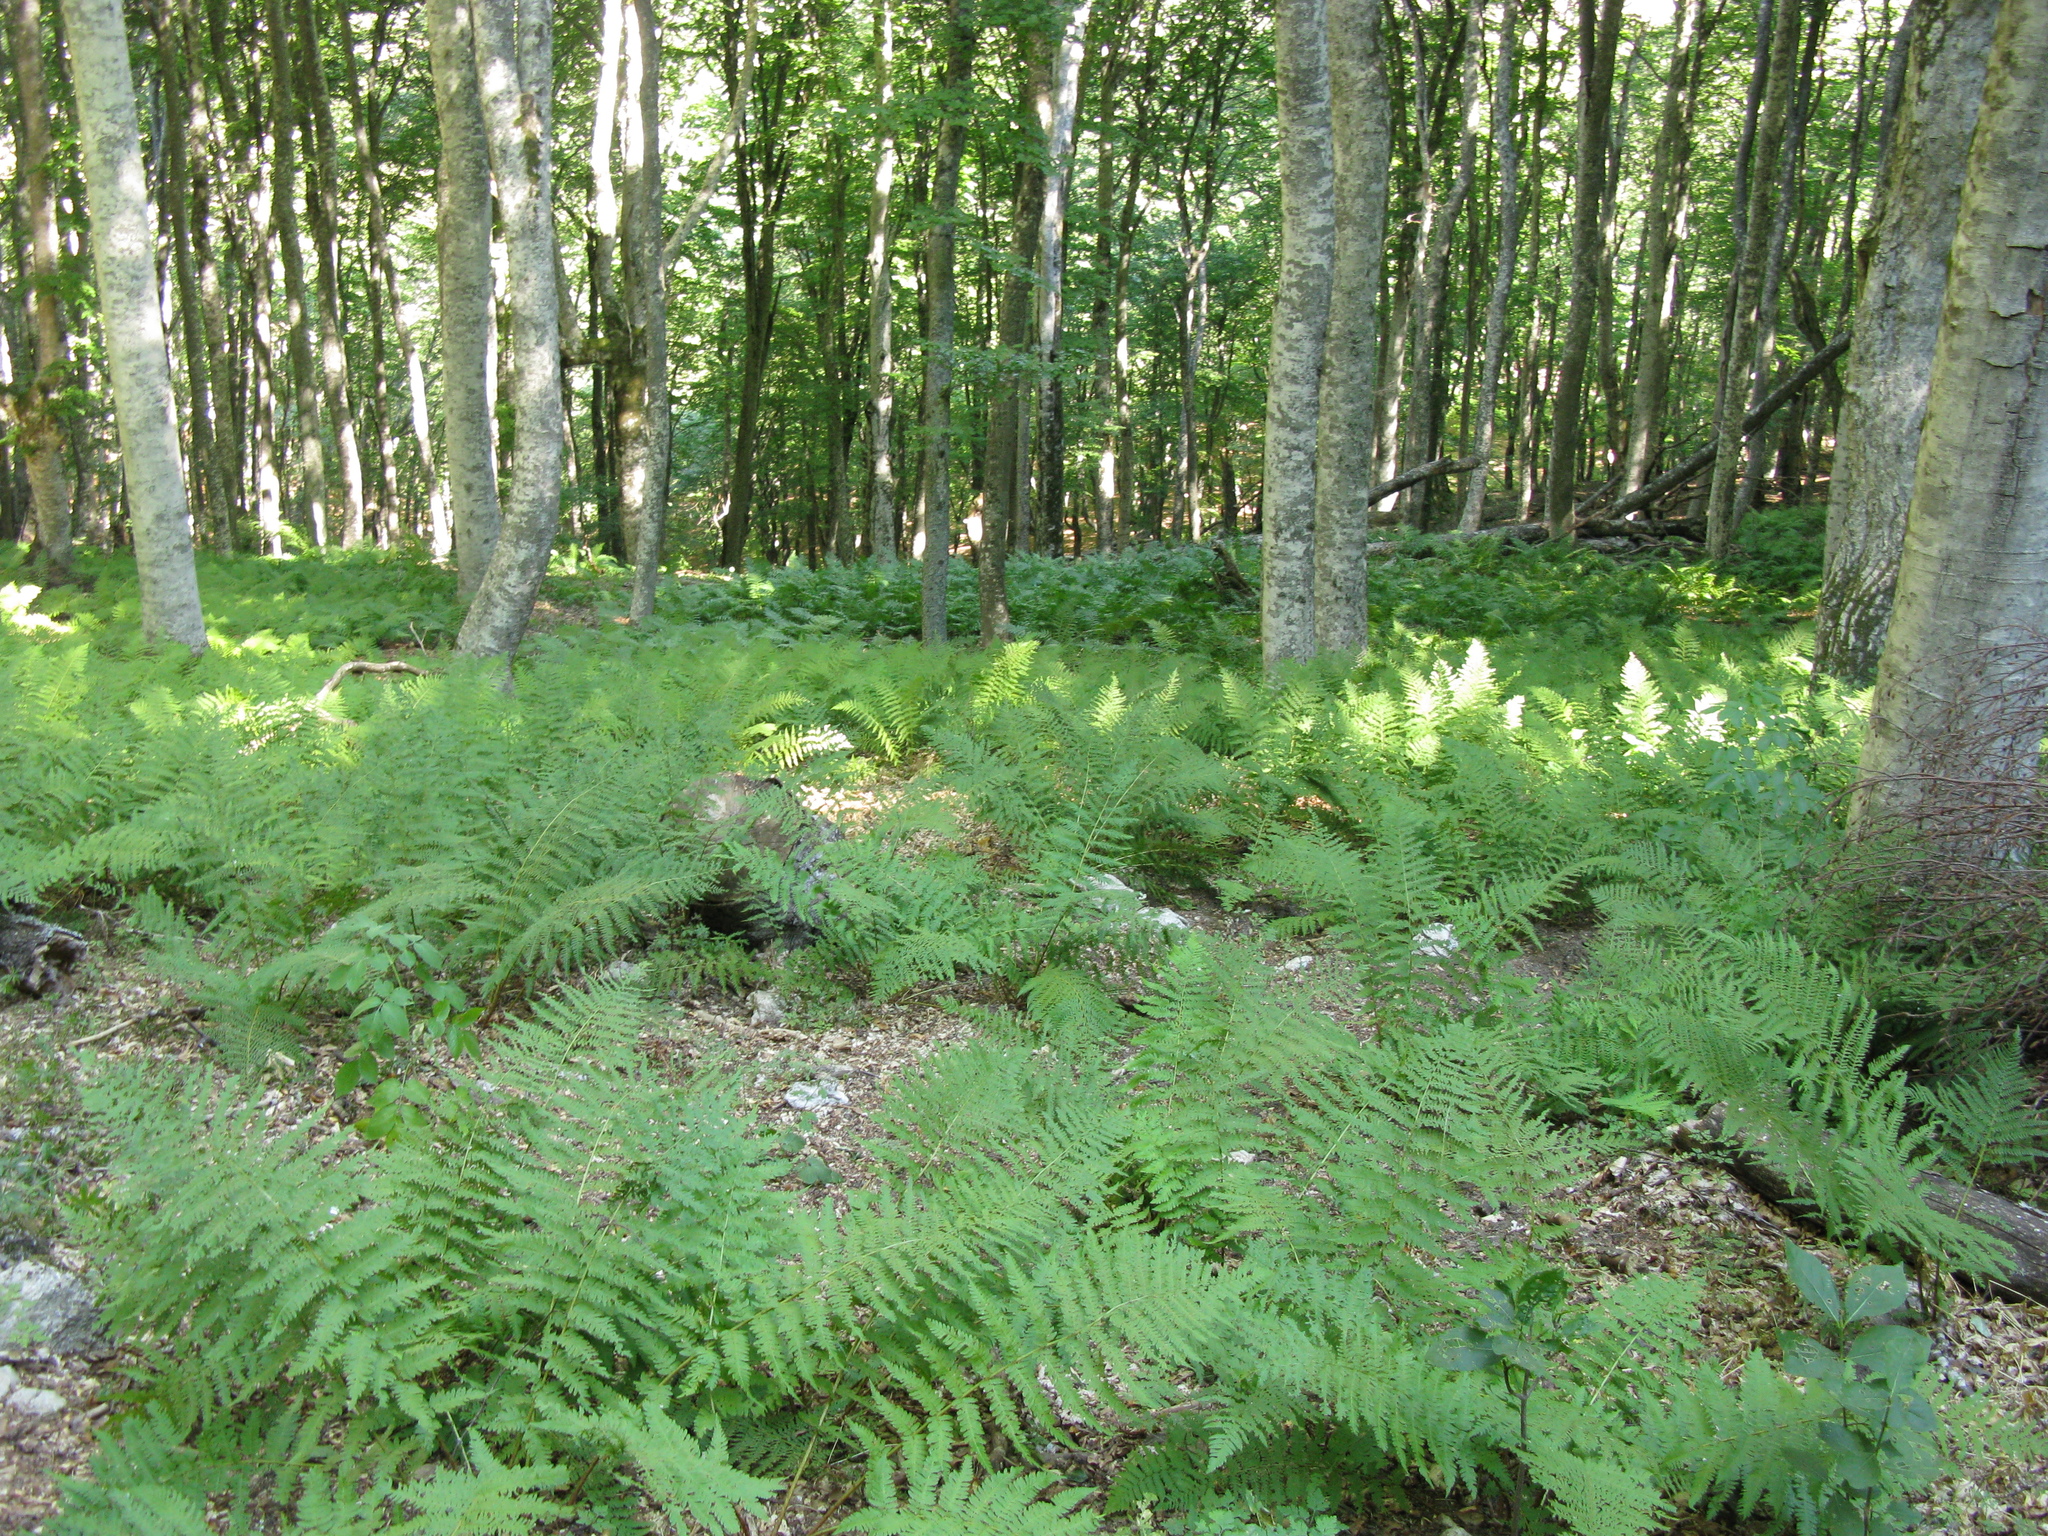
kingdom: Plantae
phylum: Tracheophyta
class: Polypodiopsida
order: Polypodiales
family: Dryopteridaceae
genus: Dryopteris
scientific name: Dryopteris filix-mas
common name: Male fern
